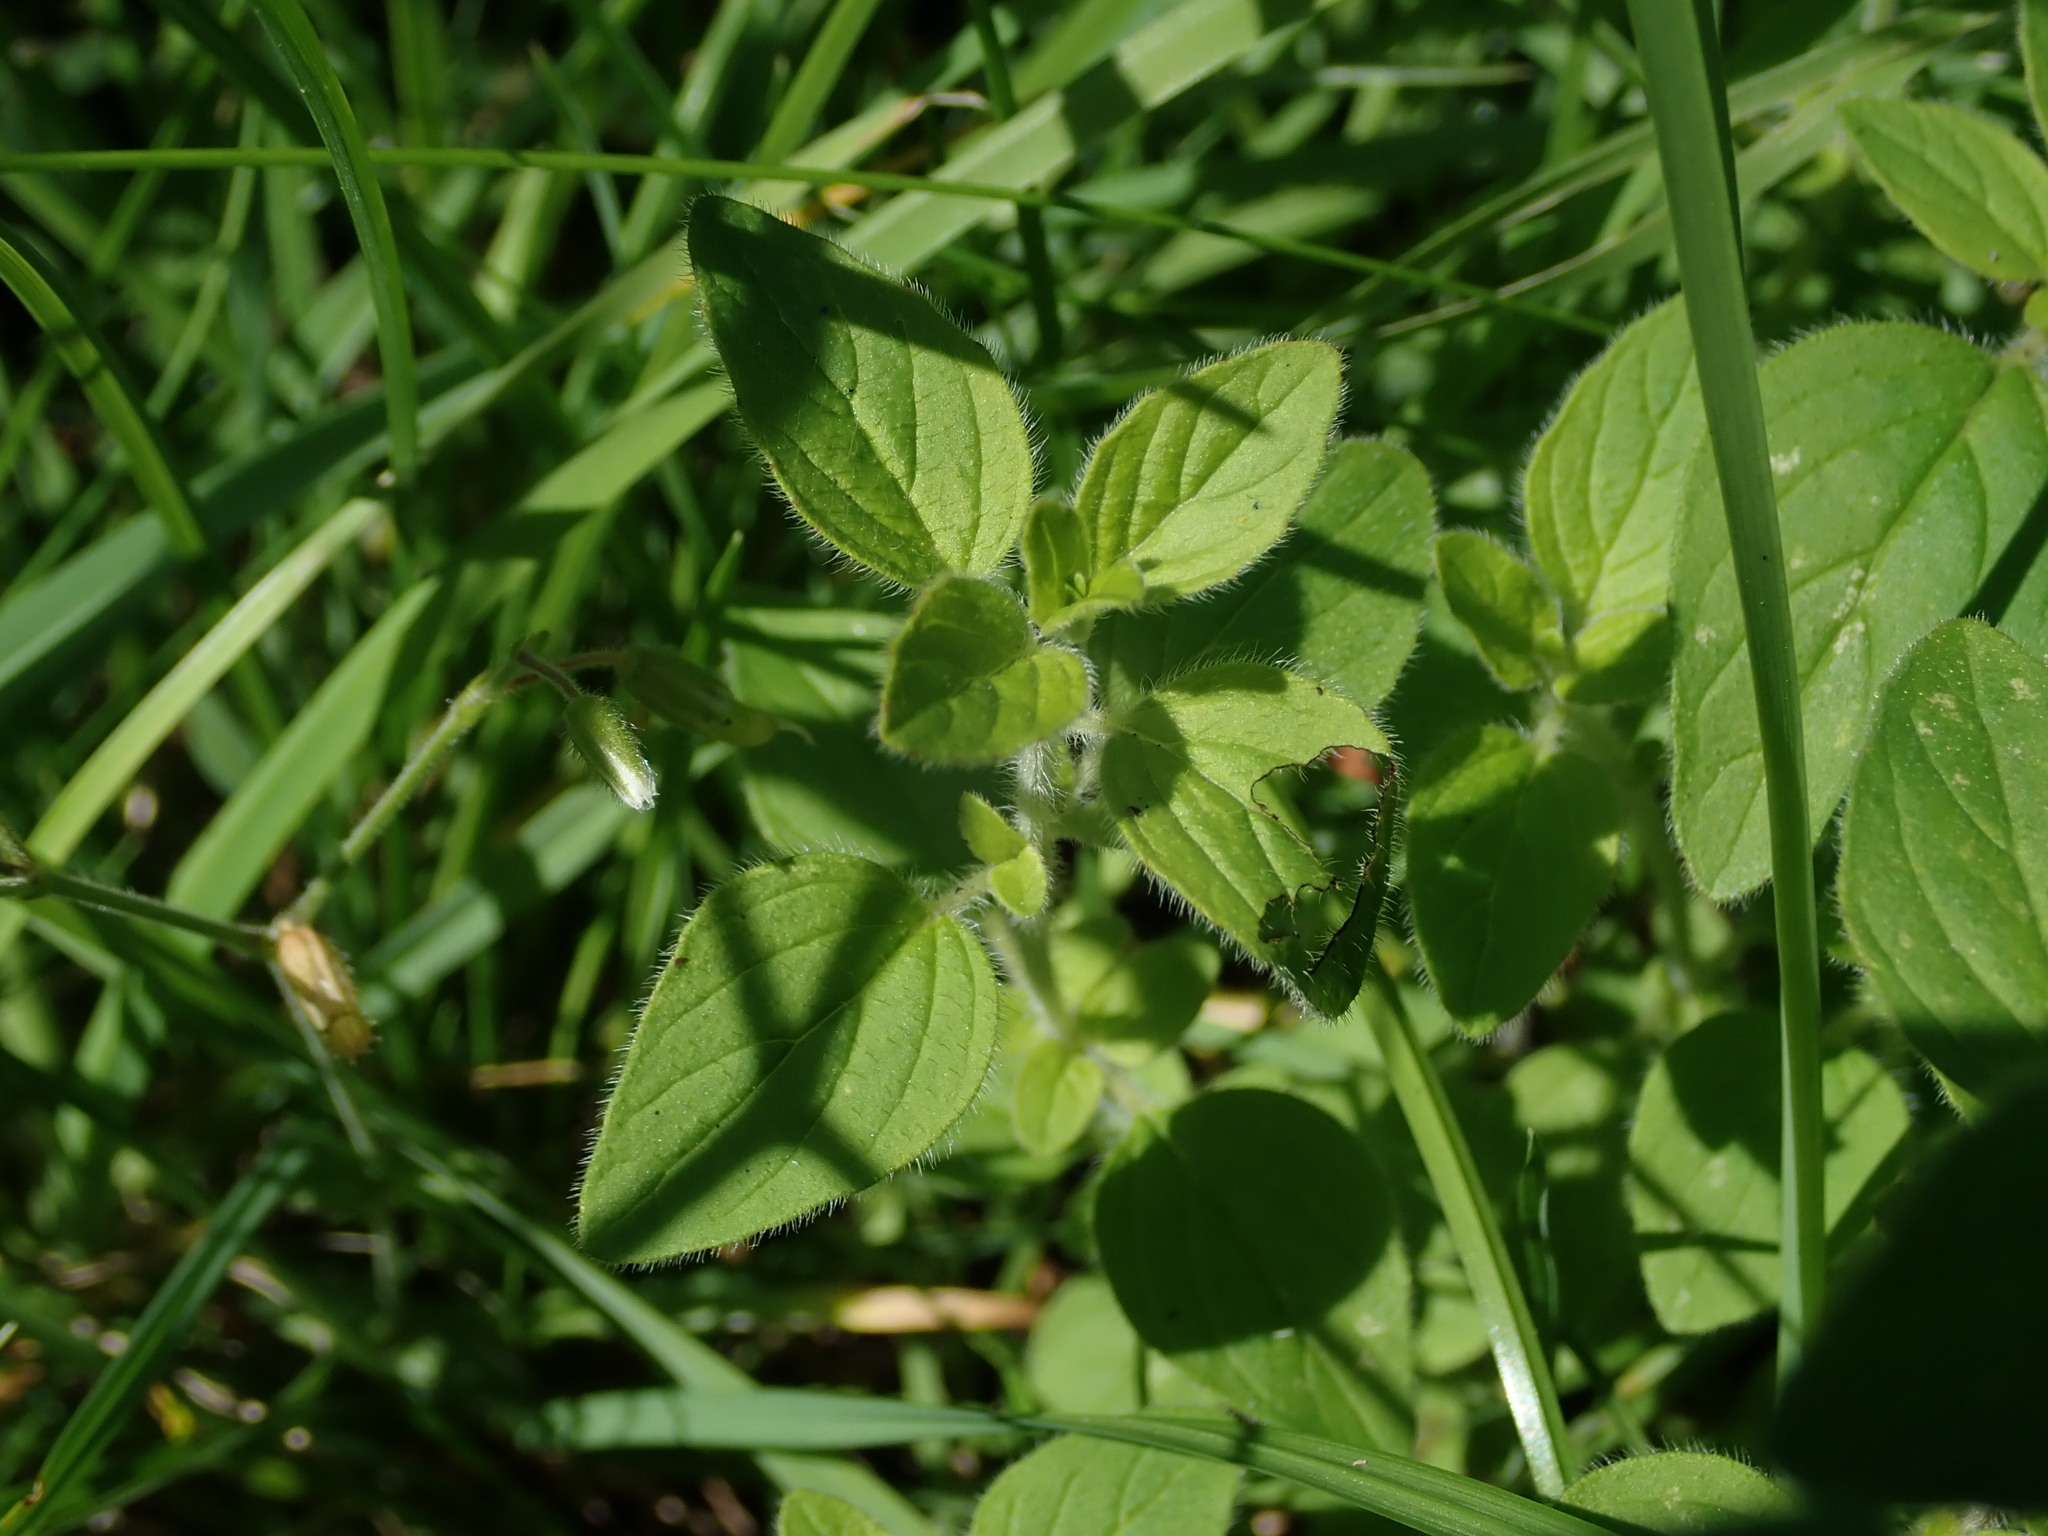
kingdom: Plantae
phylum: Tracheophyta
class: Magnoliopsida
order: Lamiales
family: Lamiaceae
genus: Origanum
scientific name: Origanum vulgare
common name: Wild marjoram
